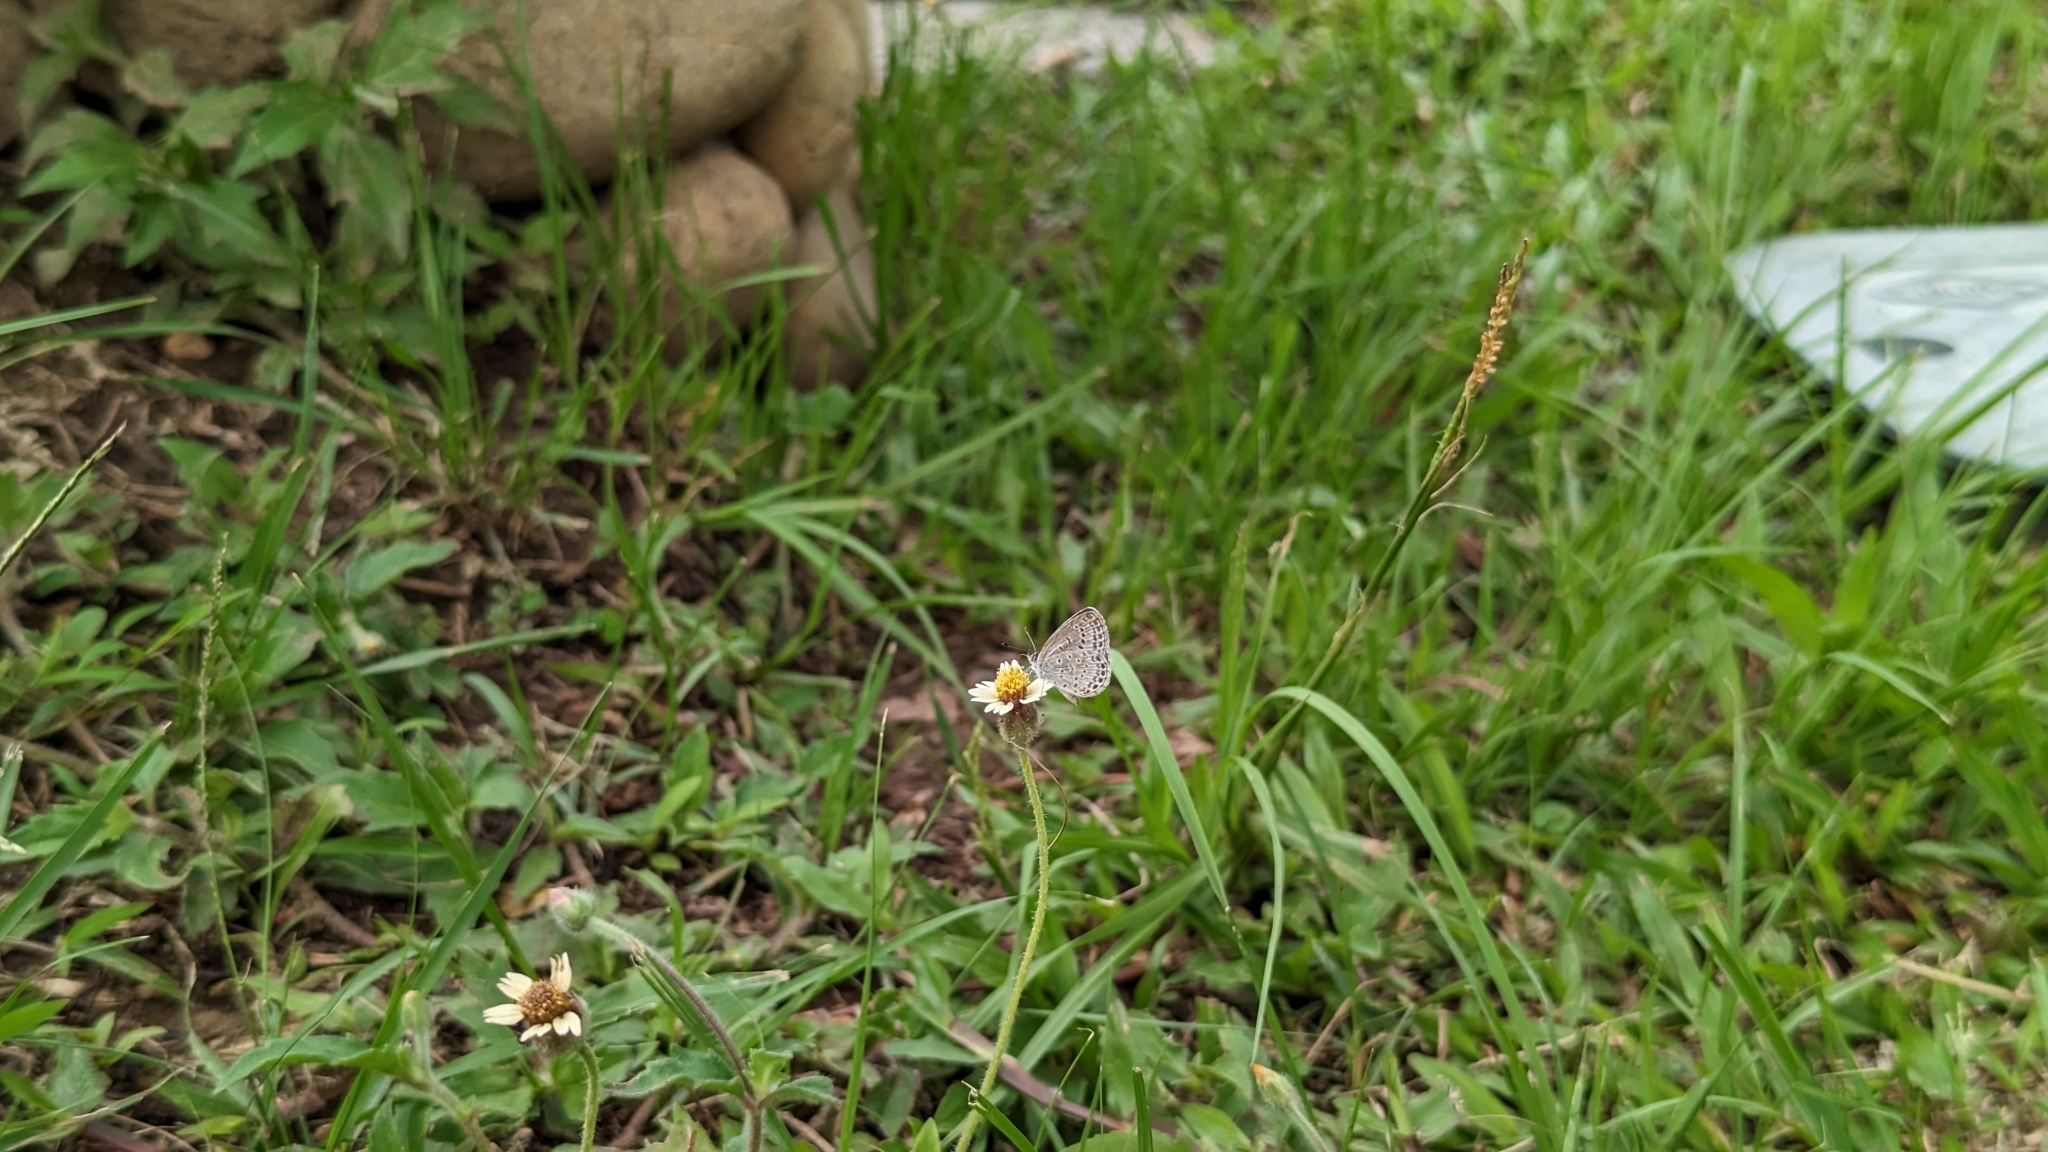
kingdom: Animalia
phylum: Arthropoda
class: Insecta
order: Lepidoptera
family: Lycaenidae
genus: Pseudozizeeria
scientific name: Pseudozizeeria maha
